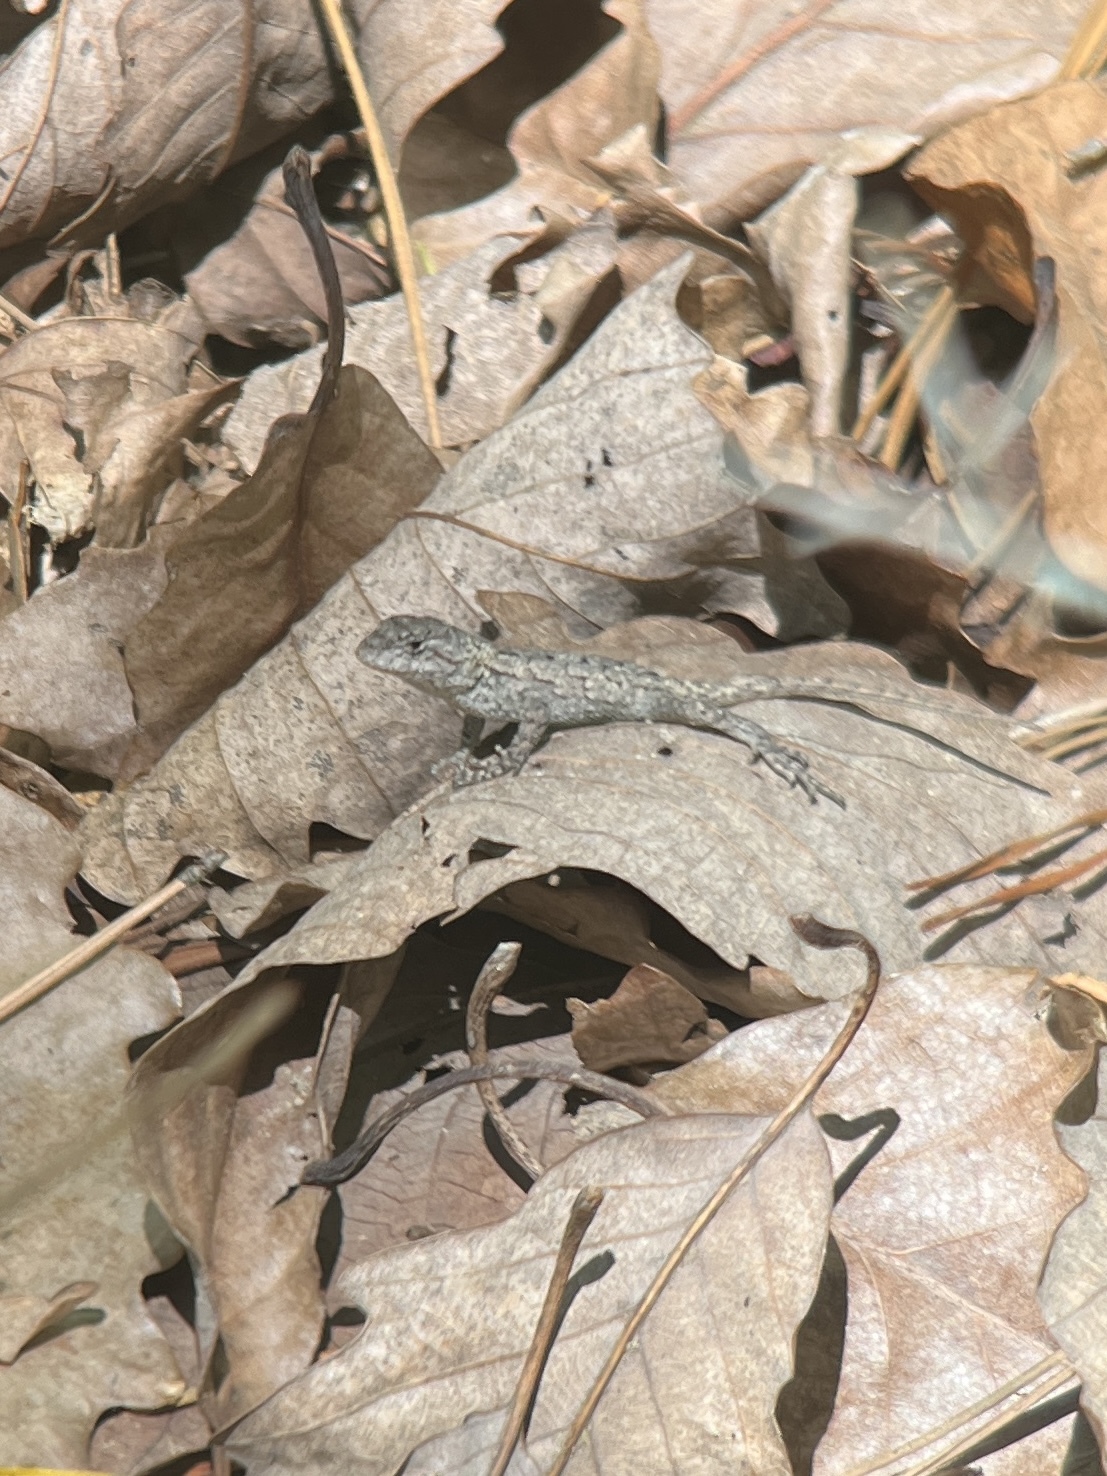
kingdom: Animalia
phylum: Chordata
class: Squamata
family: Phrynosomatidae
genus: Sceloporus
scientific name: Sceloporus undulatus
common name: Eastern fence lizard
